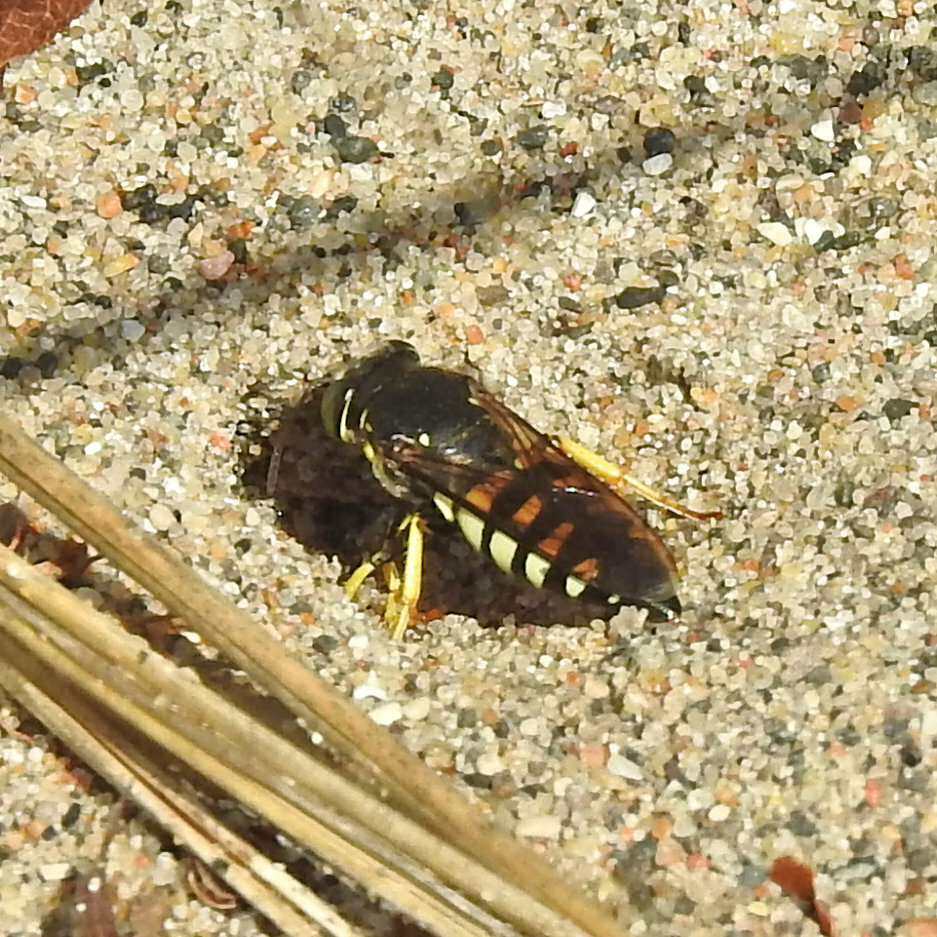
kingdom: Animalia
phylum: Arthropoda
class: Insecta
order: Hymenoptera
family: Crabronidae
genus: Bicyrtes
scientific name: Bicyrtes quadrifasciatus
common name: Four-banded stink bug hunter wasp
